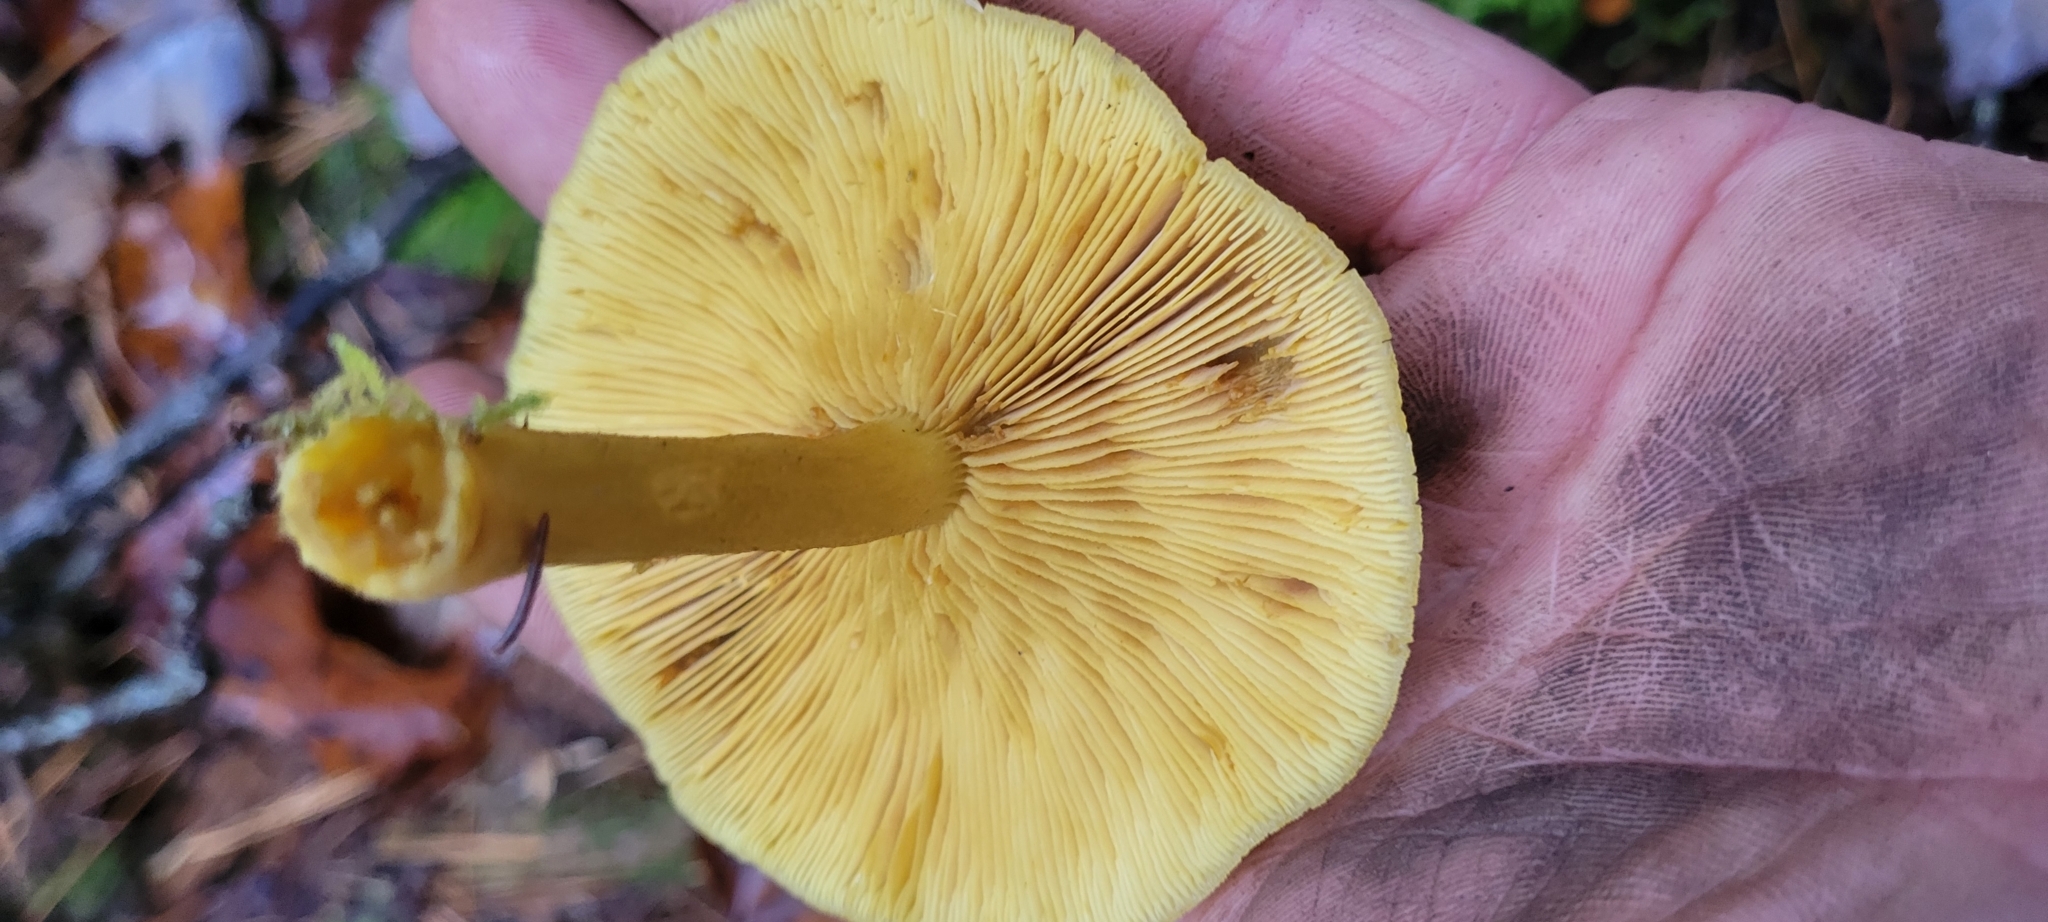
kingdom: Fungi
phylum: Basidiomycota
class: Agaricomycetes
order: Agaricales
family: Tricholomataceae
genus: Tricholomopsis
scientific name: Tricholomopsis decora
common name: Prunes and custard
